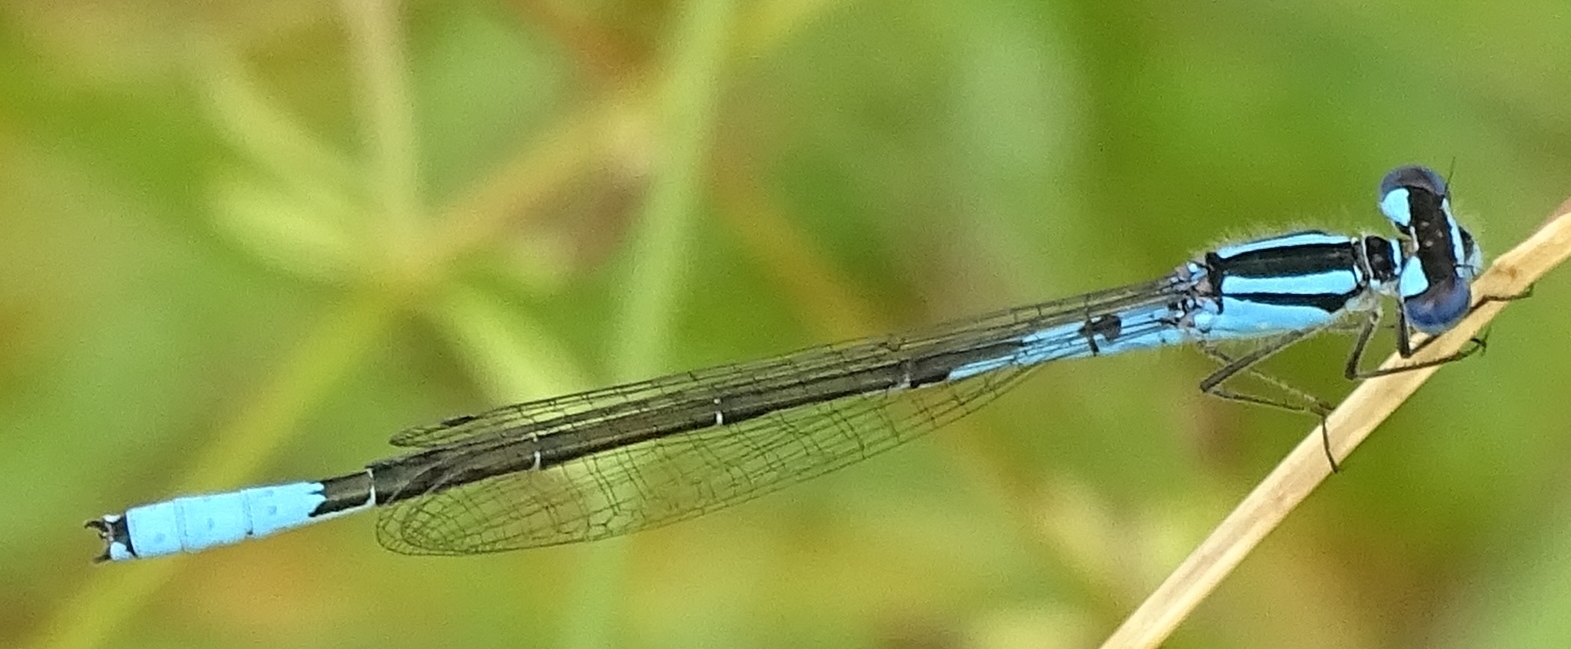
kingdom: Animalia
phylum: Arthropoda
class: Insecta
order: Odonata
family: Coenagrionidae
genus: Enallagma
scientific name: Enallagma aspersum
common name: Azure bluet
